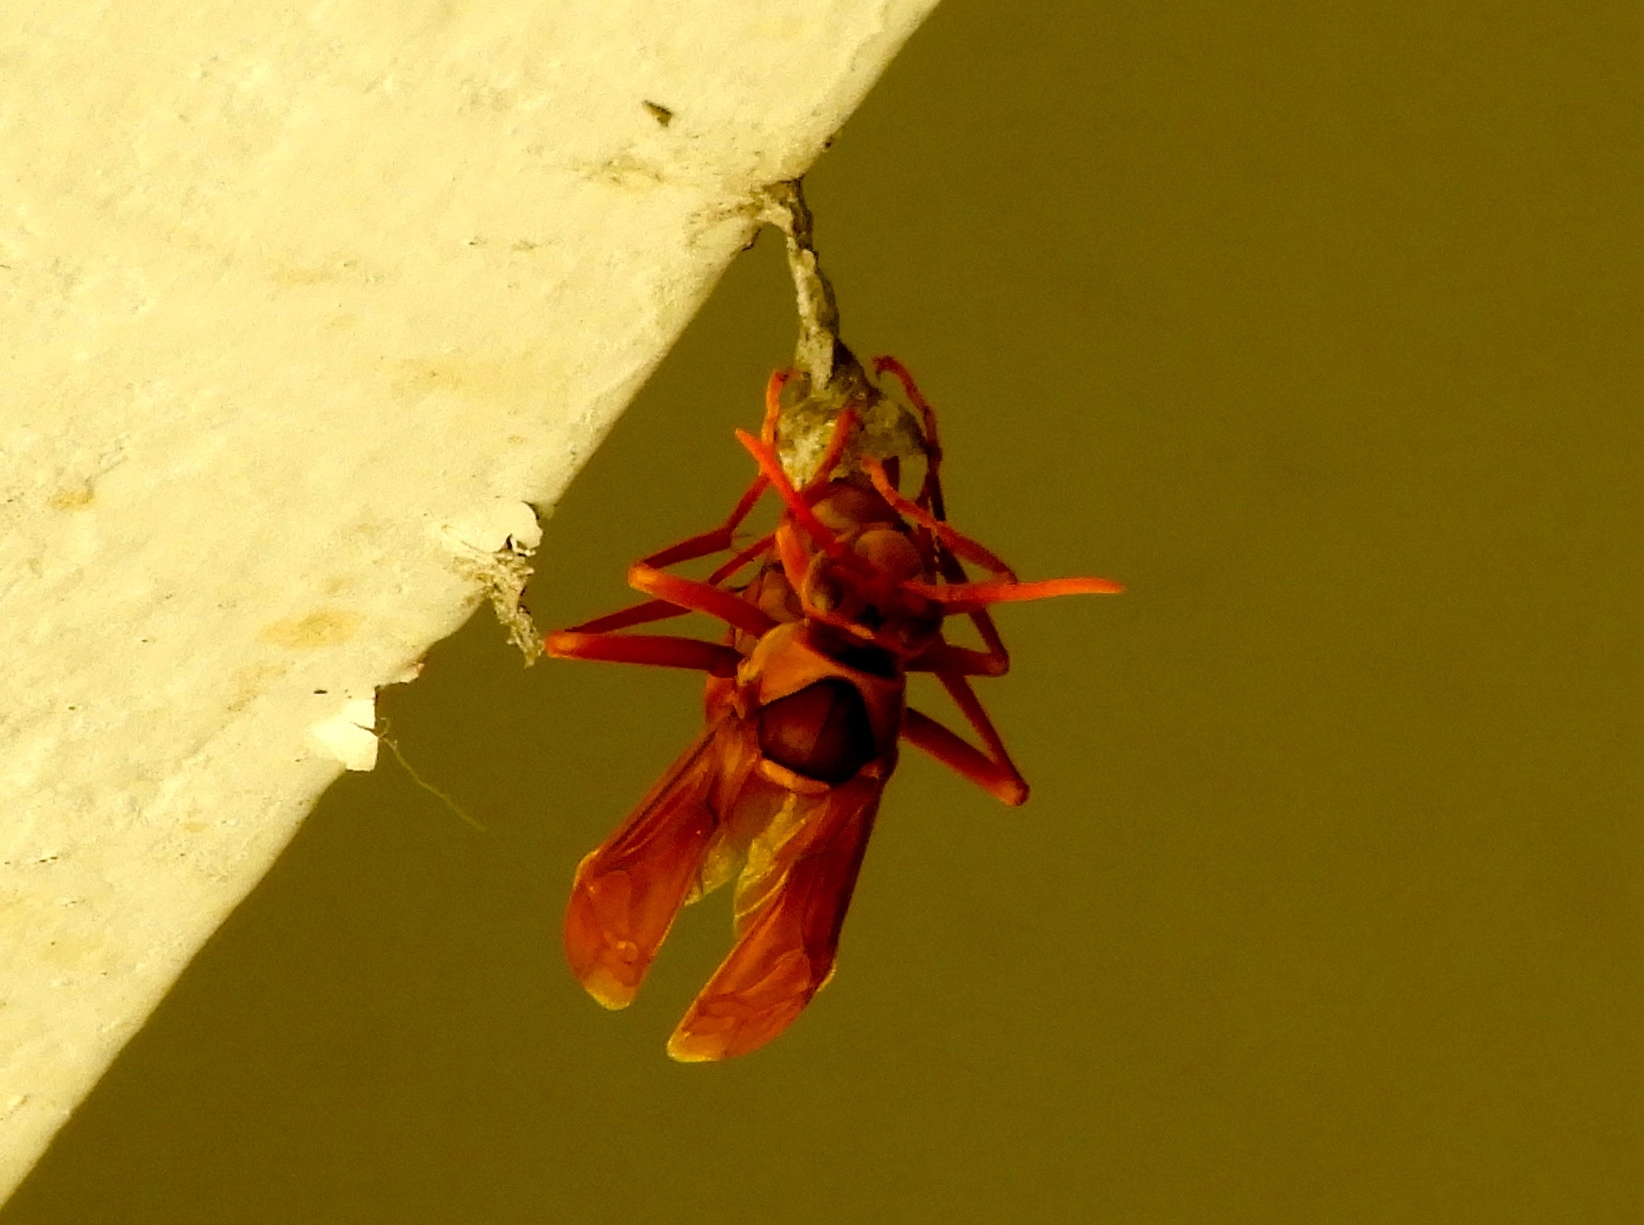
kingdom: Animalia
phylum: Arthropoda
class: Insecta
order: Hymenoptera
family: Eumenidae
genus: Polistes
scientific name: Polistes carnifex
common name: Paper wasp
